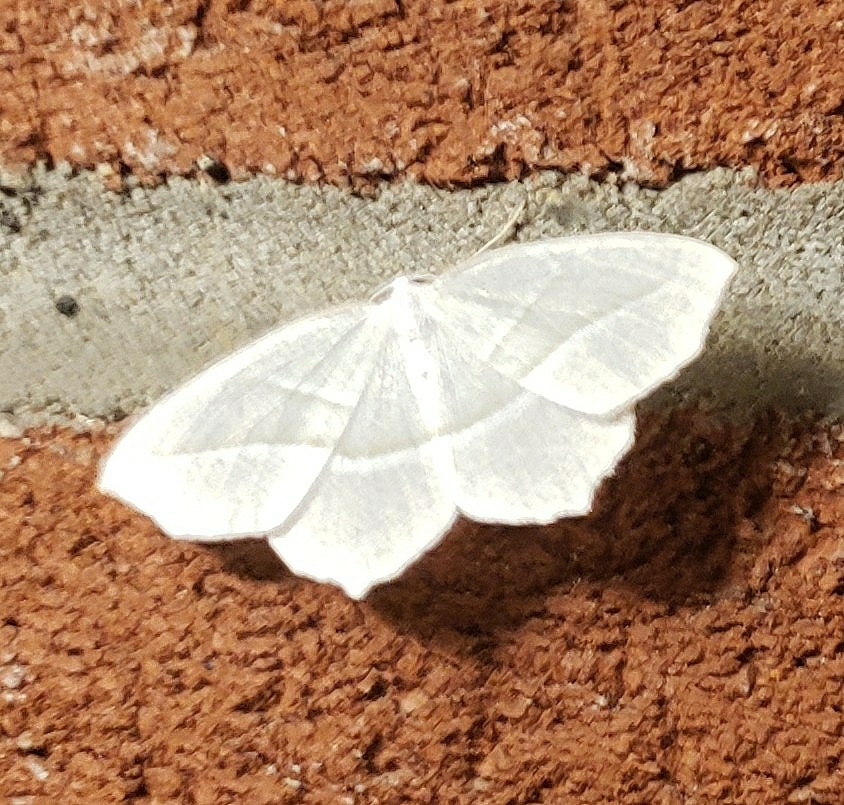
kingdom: Animalia
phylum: Arthropoda
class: Insecta
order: Lepidoptera
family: Geometridae
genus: Campaea
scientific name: Campaea perlata
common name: Fringed looper
